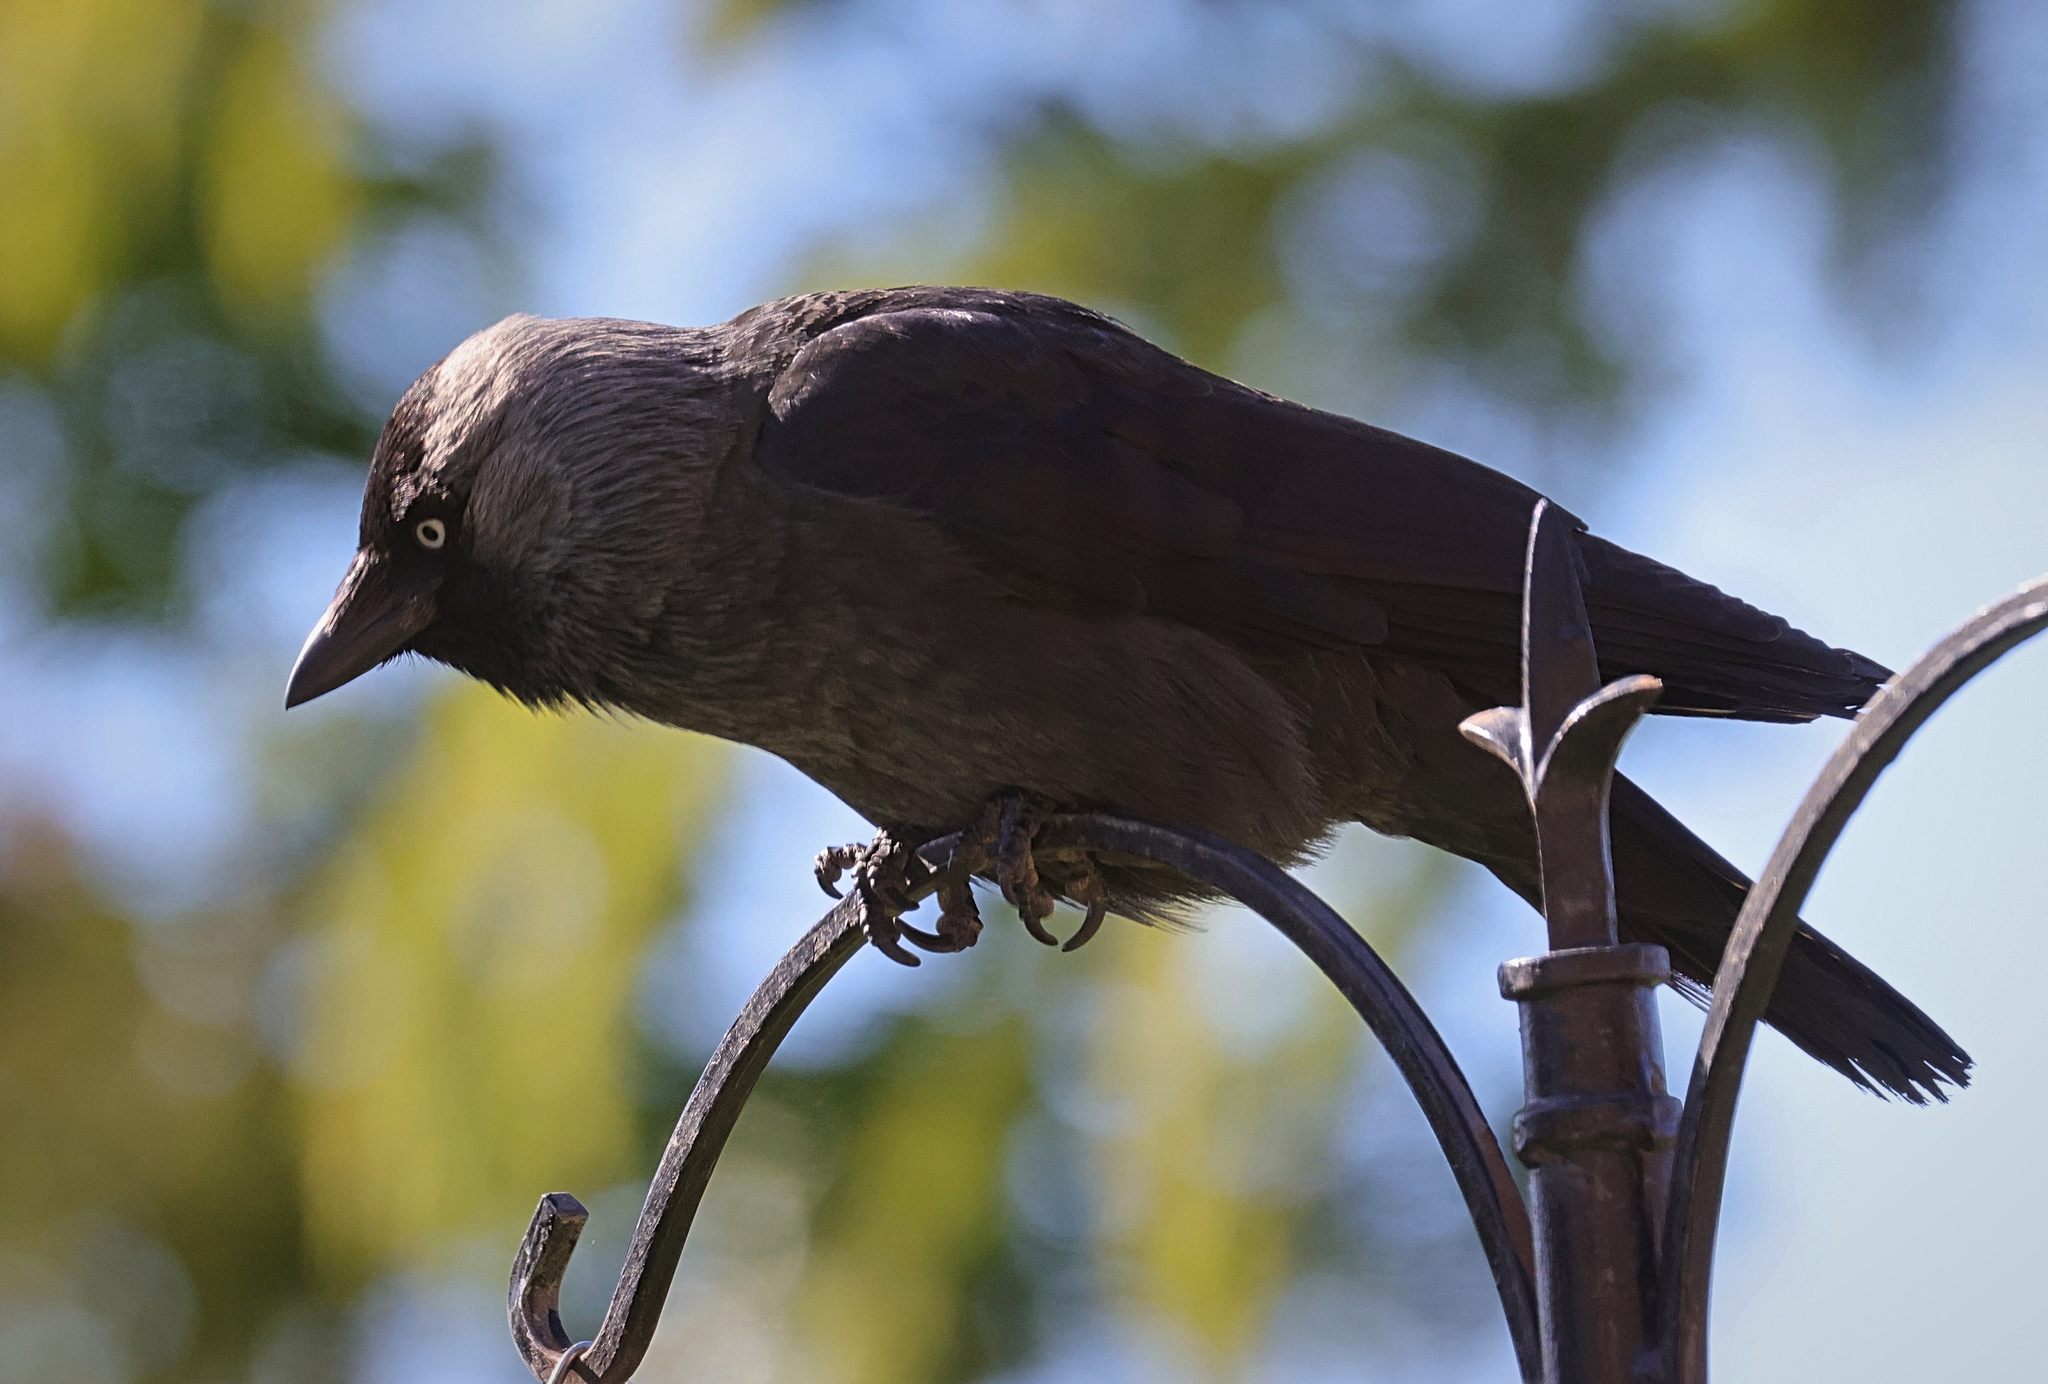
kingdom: Animalia
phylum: Chordata
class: Aves
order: Passeriformes
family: Corvidae
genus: Coloeus
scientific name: Coloeus monedula
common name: Western jackdaw
